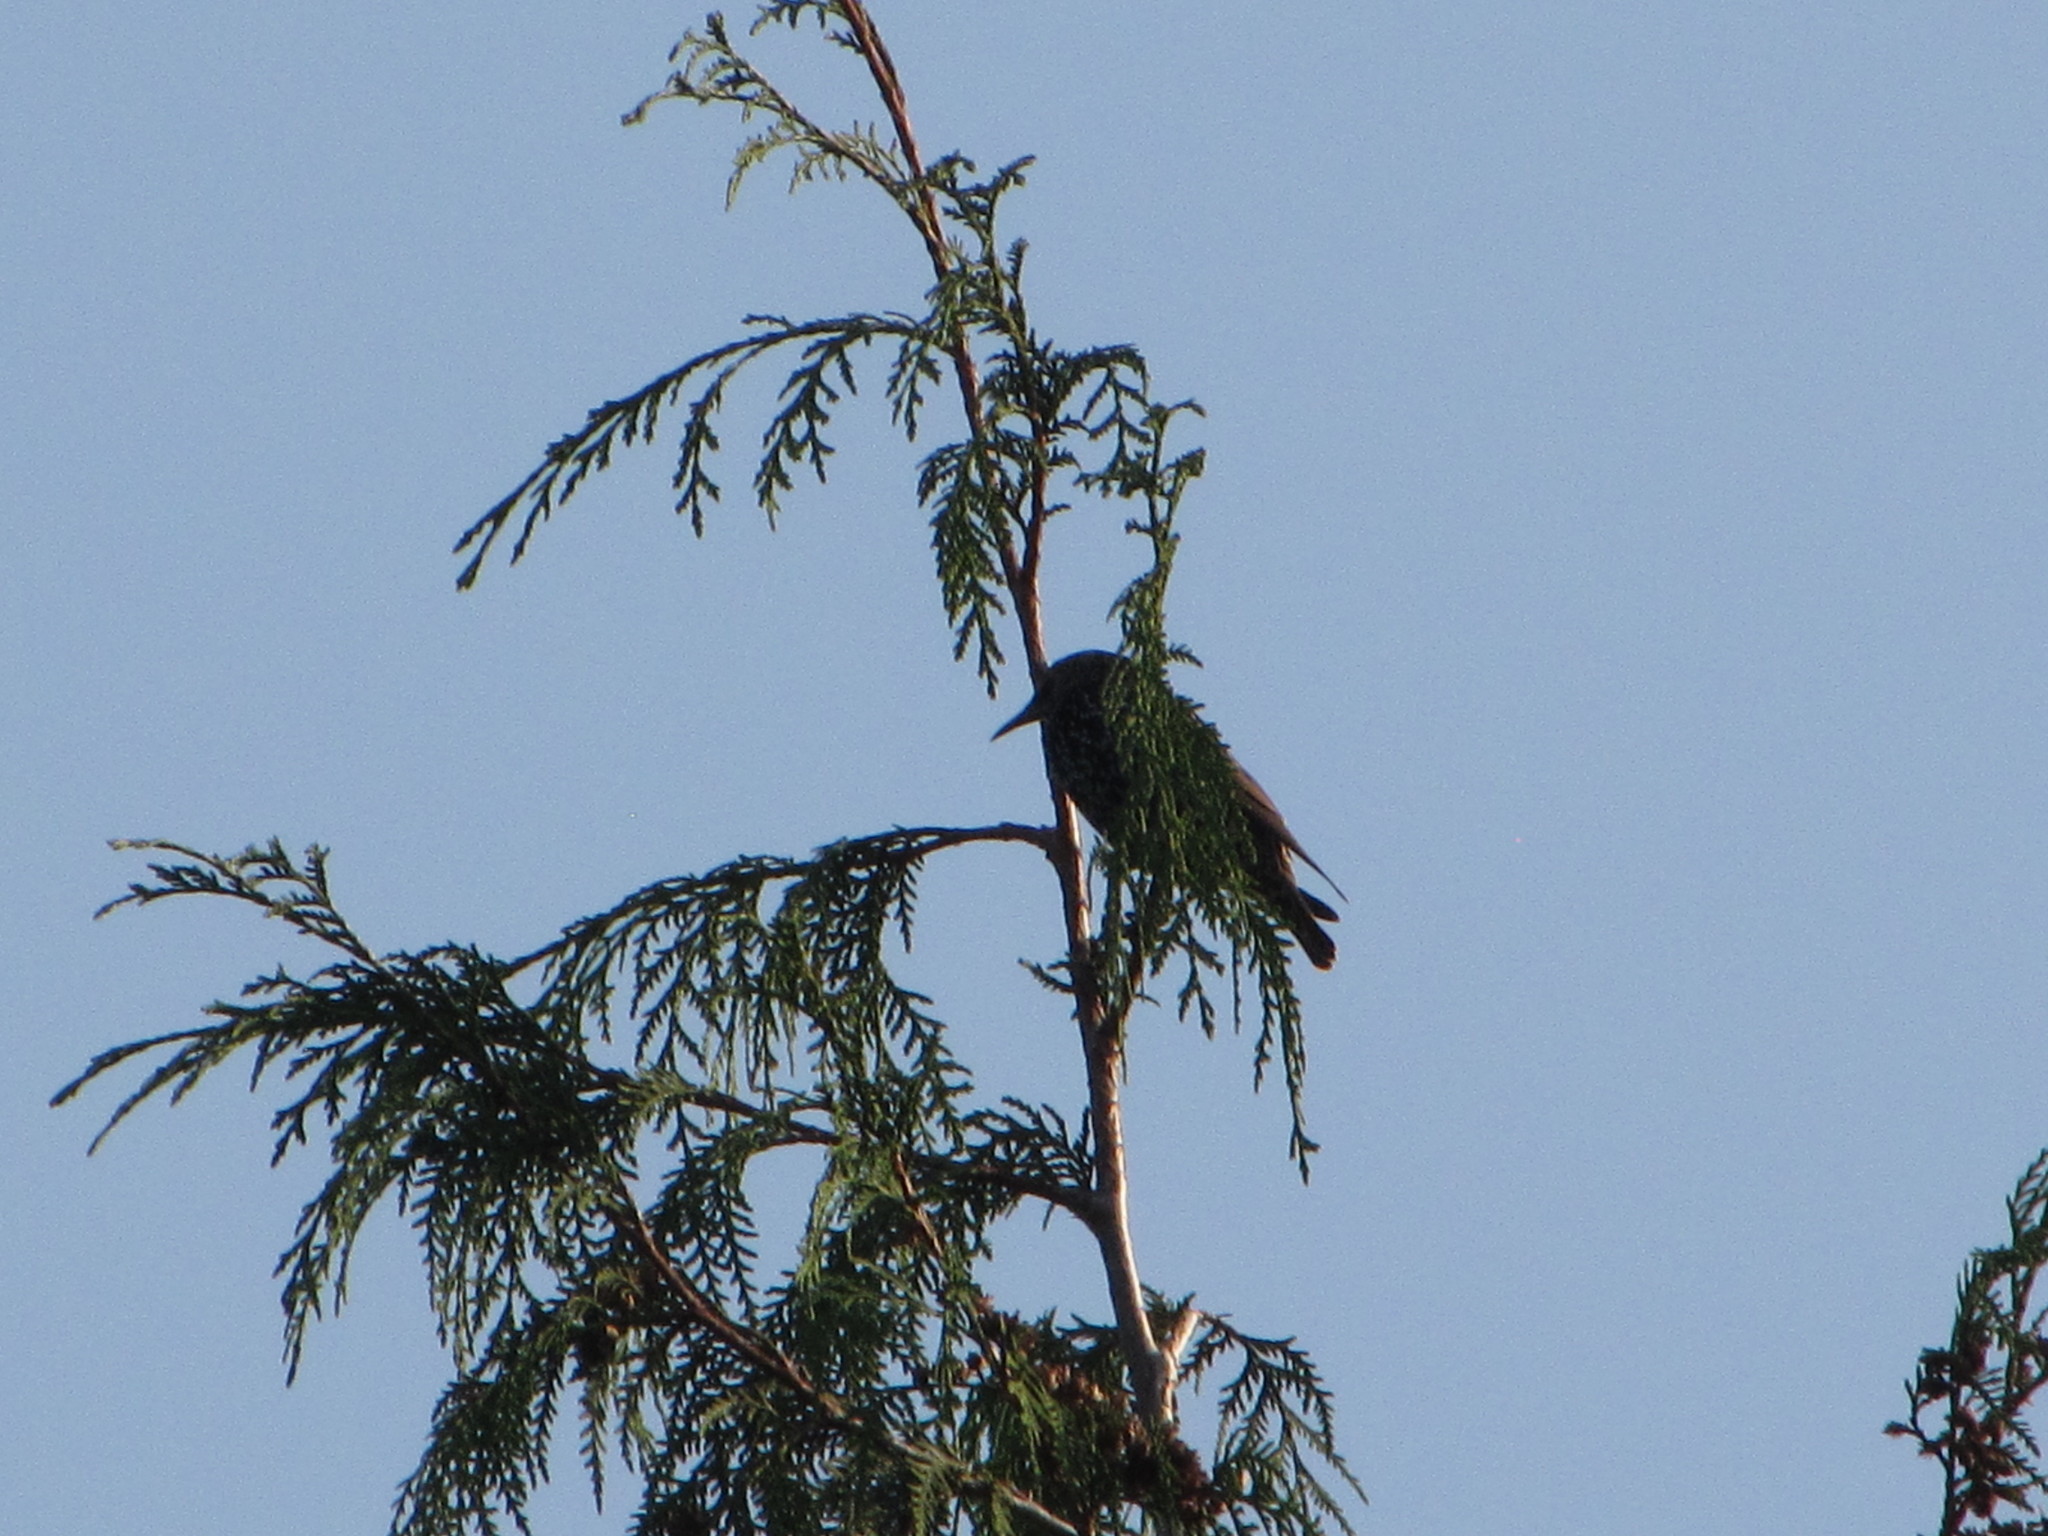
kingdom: Animalia
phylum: Chordata
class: Aves
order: Passeriformes
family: Sturnidae
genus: Sturnus
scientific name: Sturnus vulgaris
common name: Common starling
